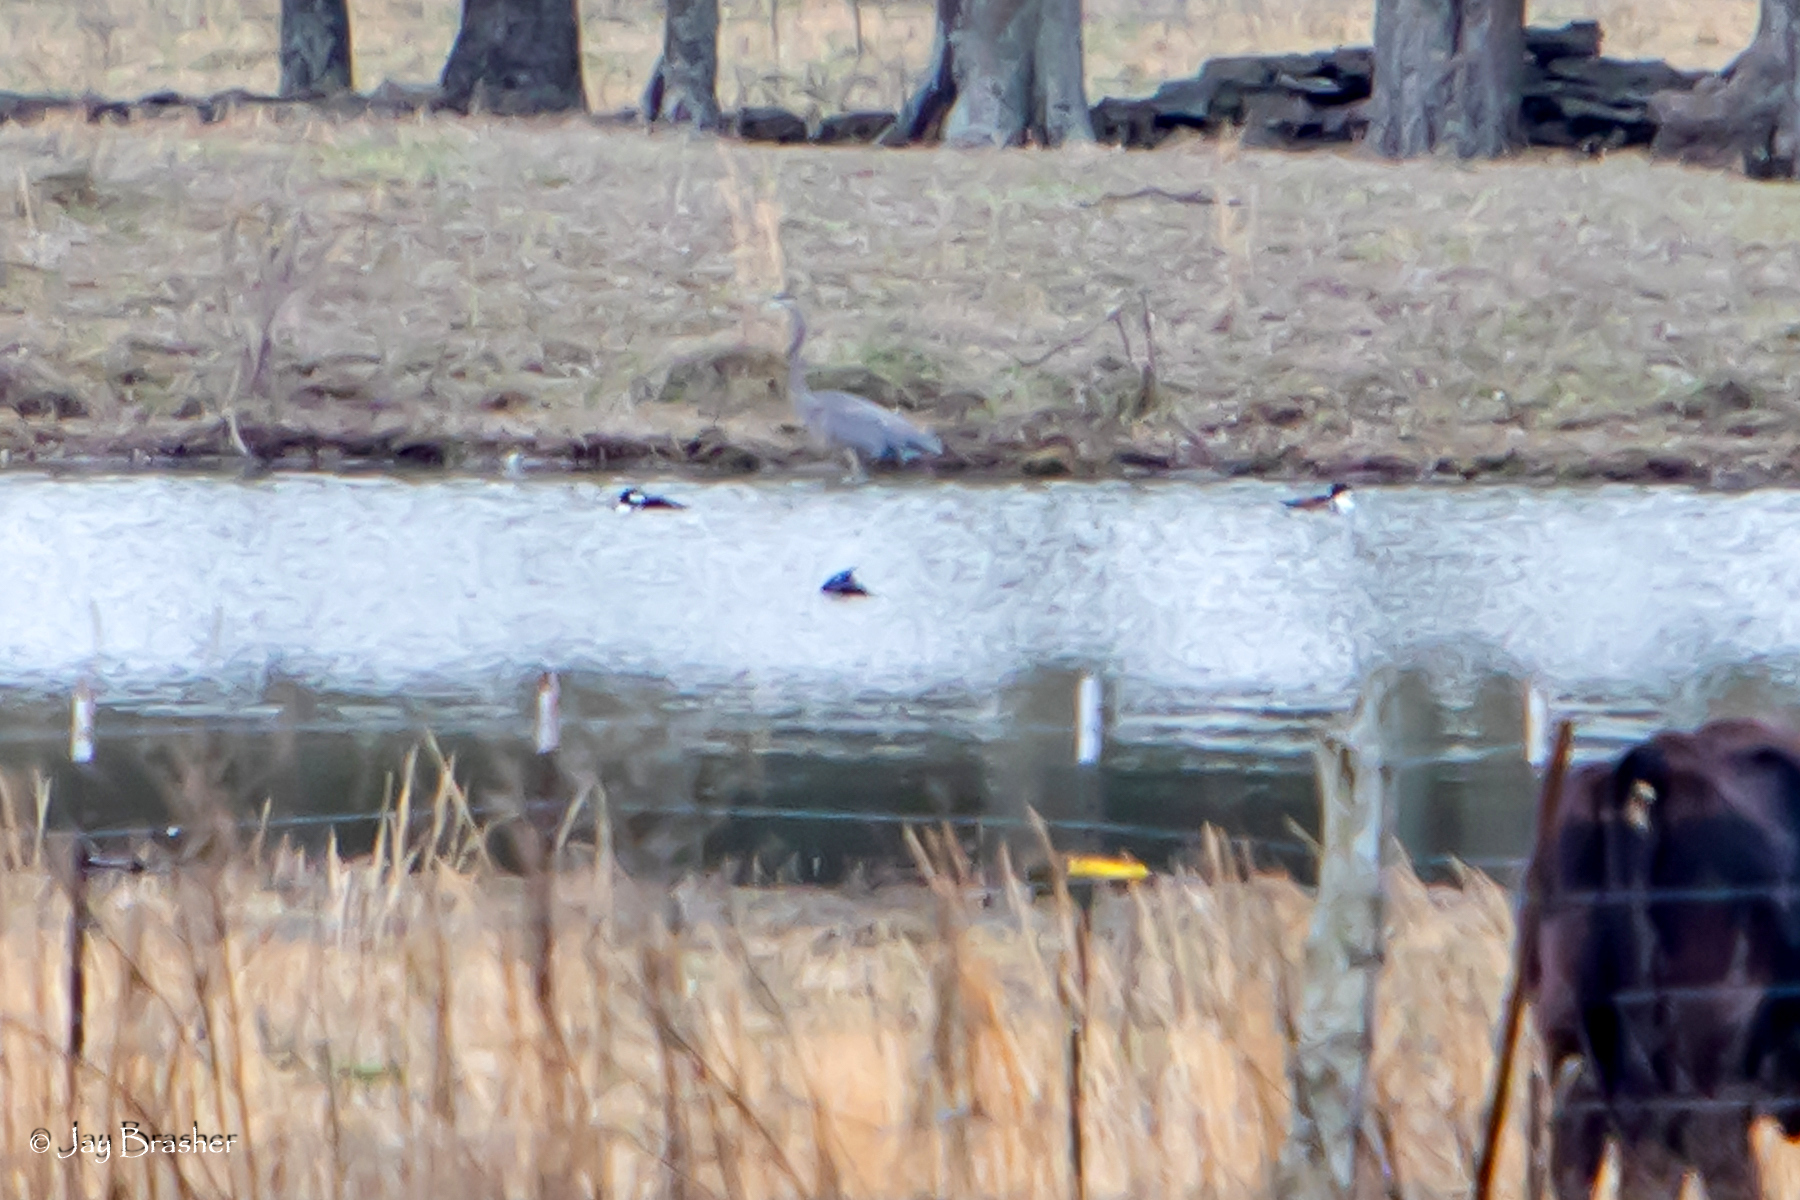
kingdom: Animalia
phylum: Chordata
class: Aves
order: Anseriformes
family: Anatidae
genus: Lophodytes
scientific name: Lophodytes cucullatus
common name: Hooded merganser
